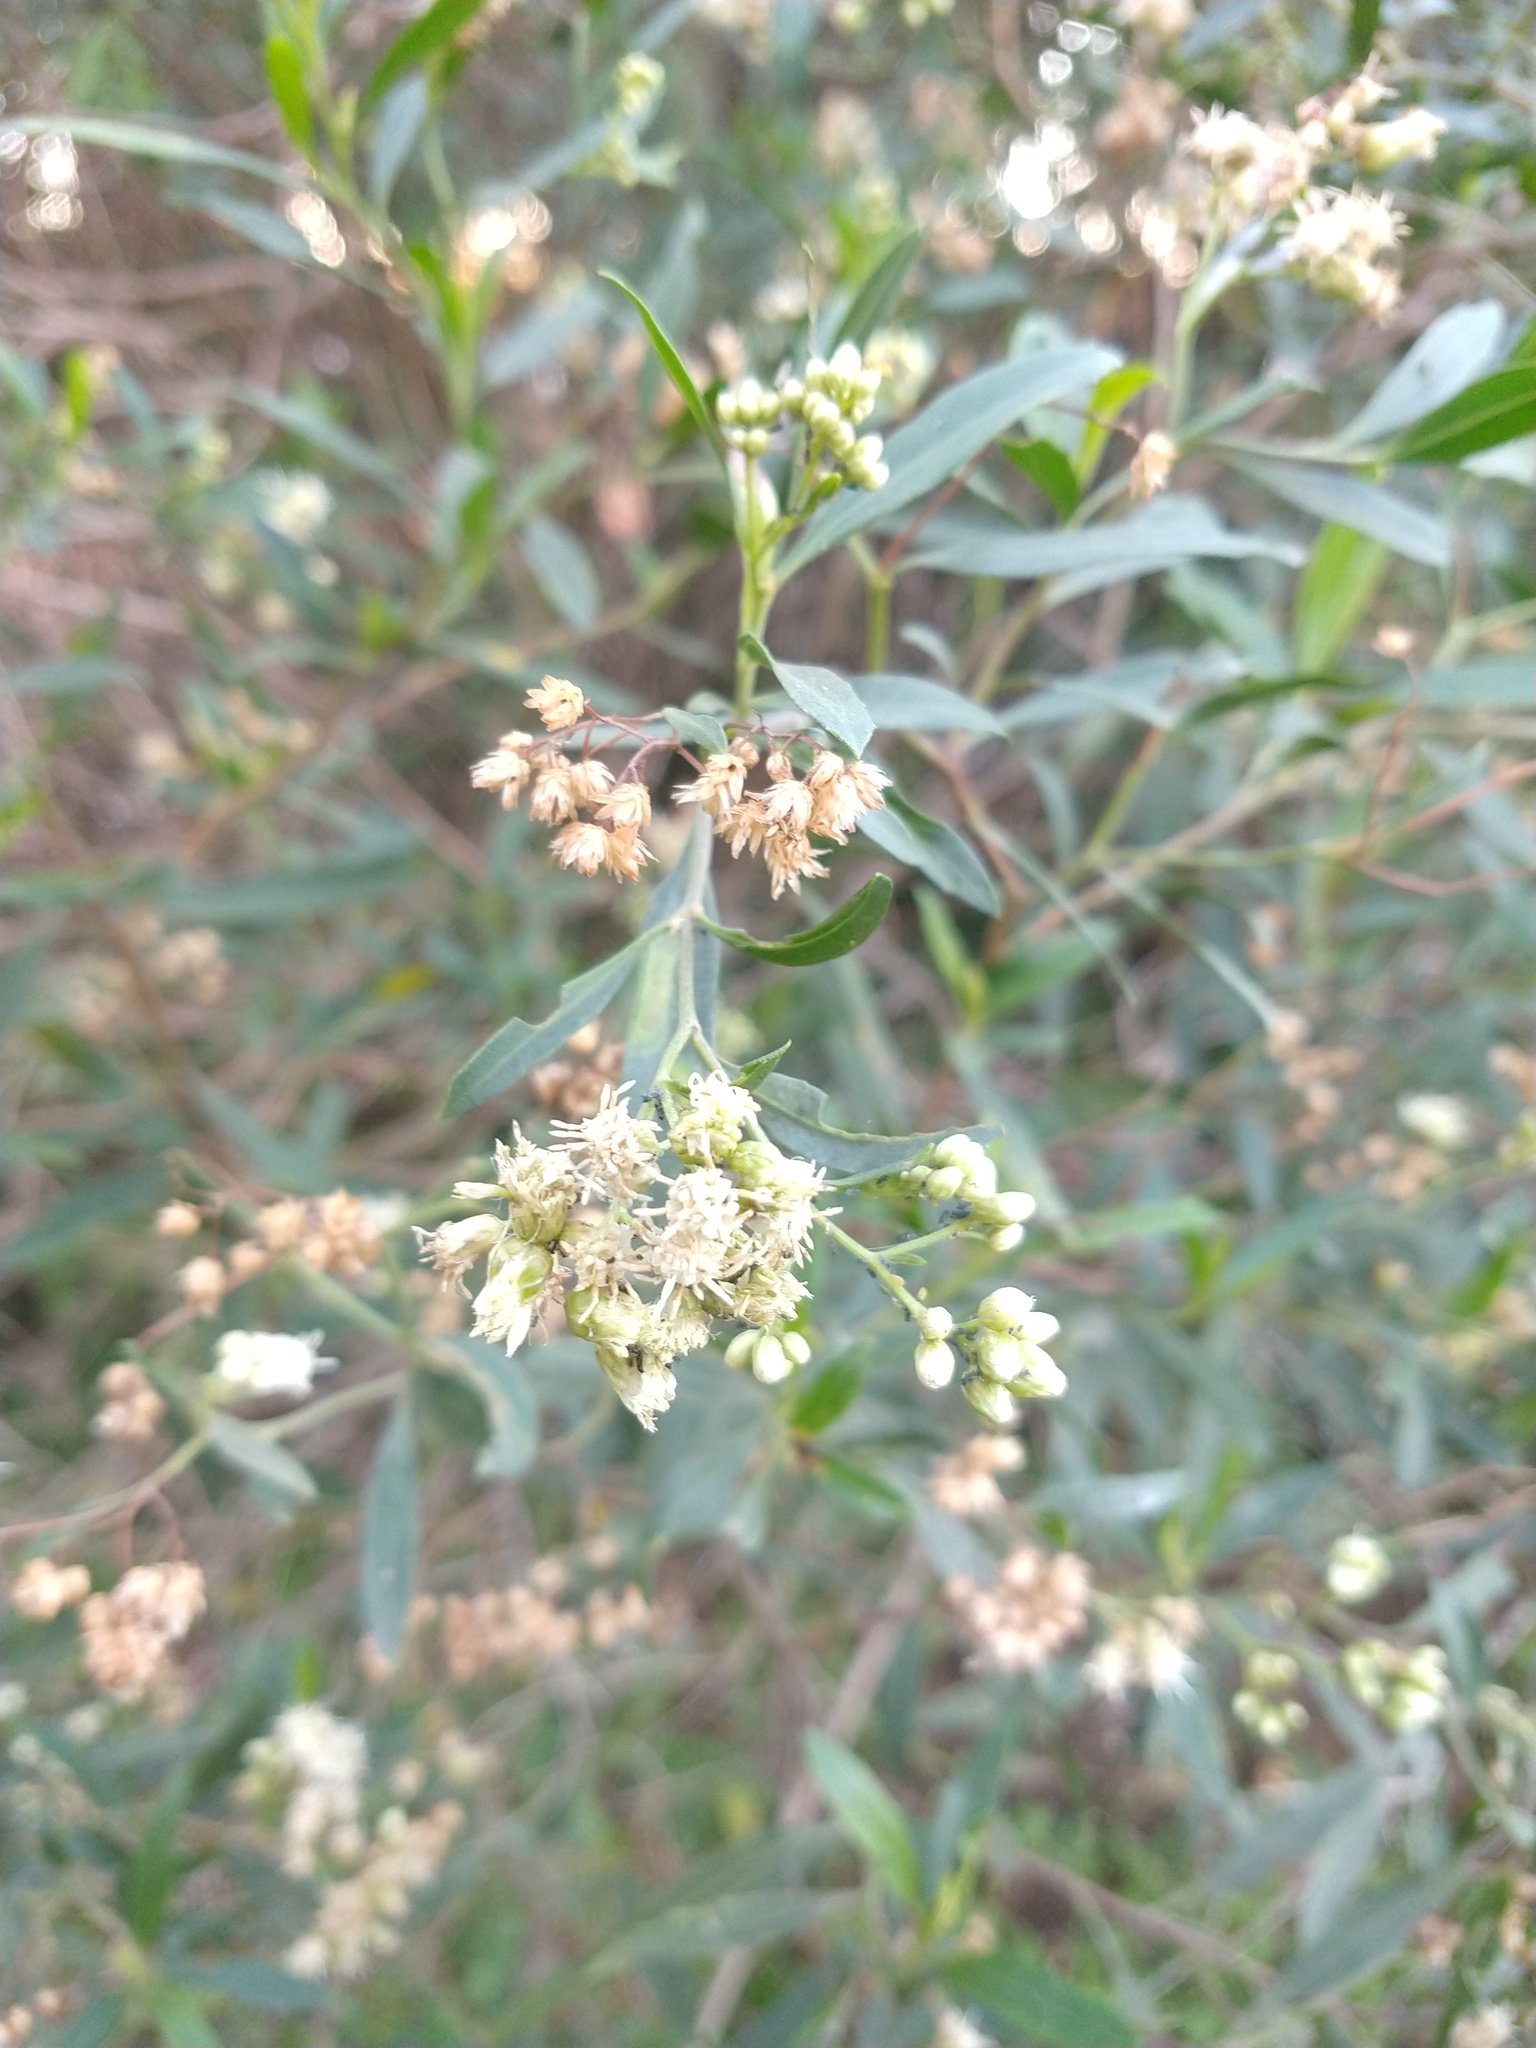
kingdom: Plantae
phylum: Tracheophyta
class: Magnoliopsida
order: Asterales
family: Asteraceae
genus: Baccharis
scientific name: Baccharis salicifolia
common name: Sticky baccharis
